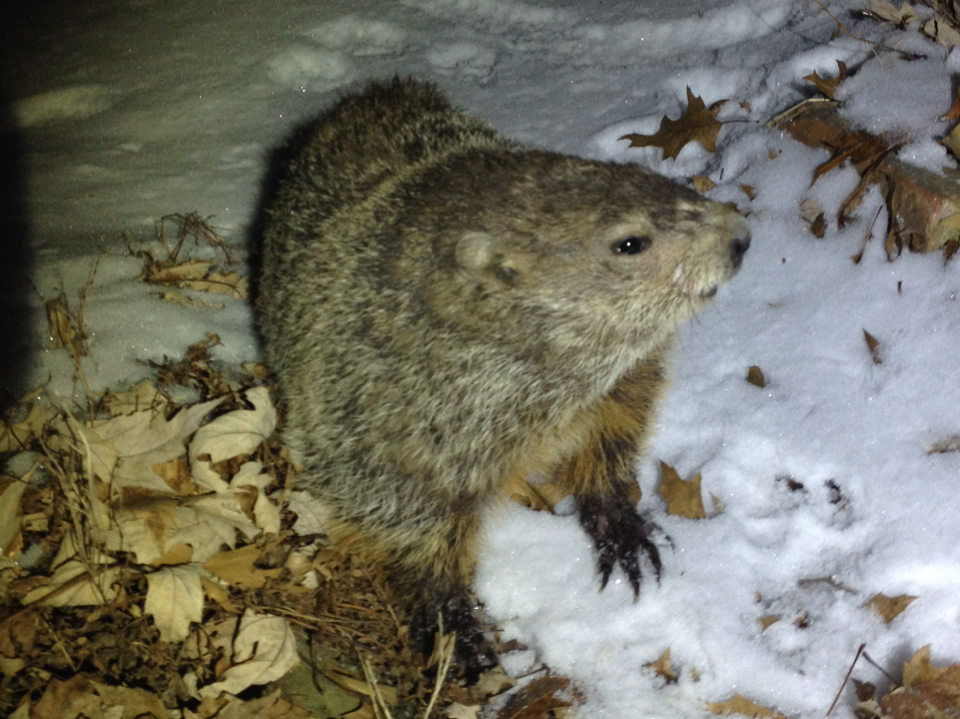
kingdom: Animalia
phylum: Chordata
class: Mammalia
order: Rodentia
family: Sciuridae
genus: Marmota
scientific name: Marmota monax
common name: Groundhog
